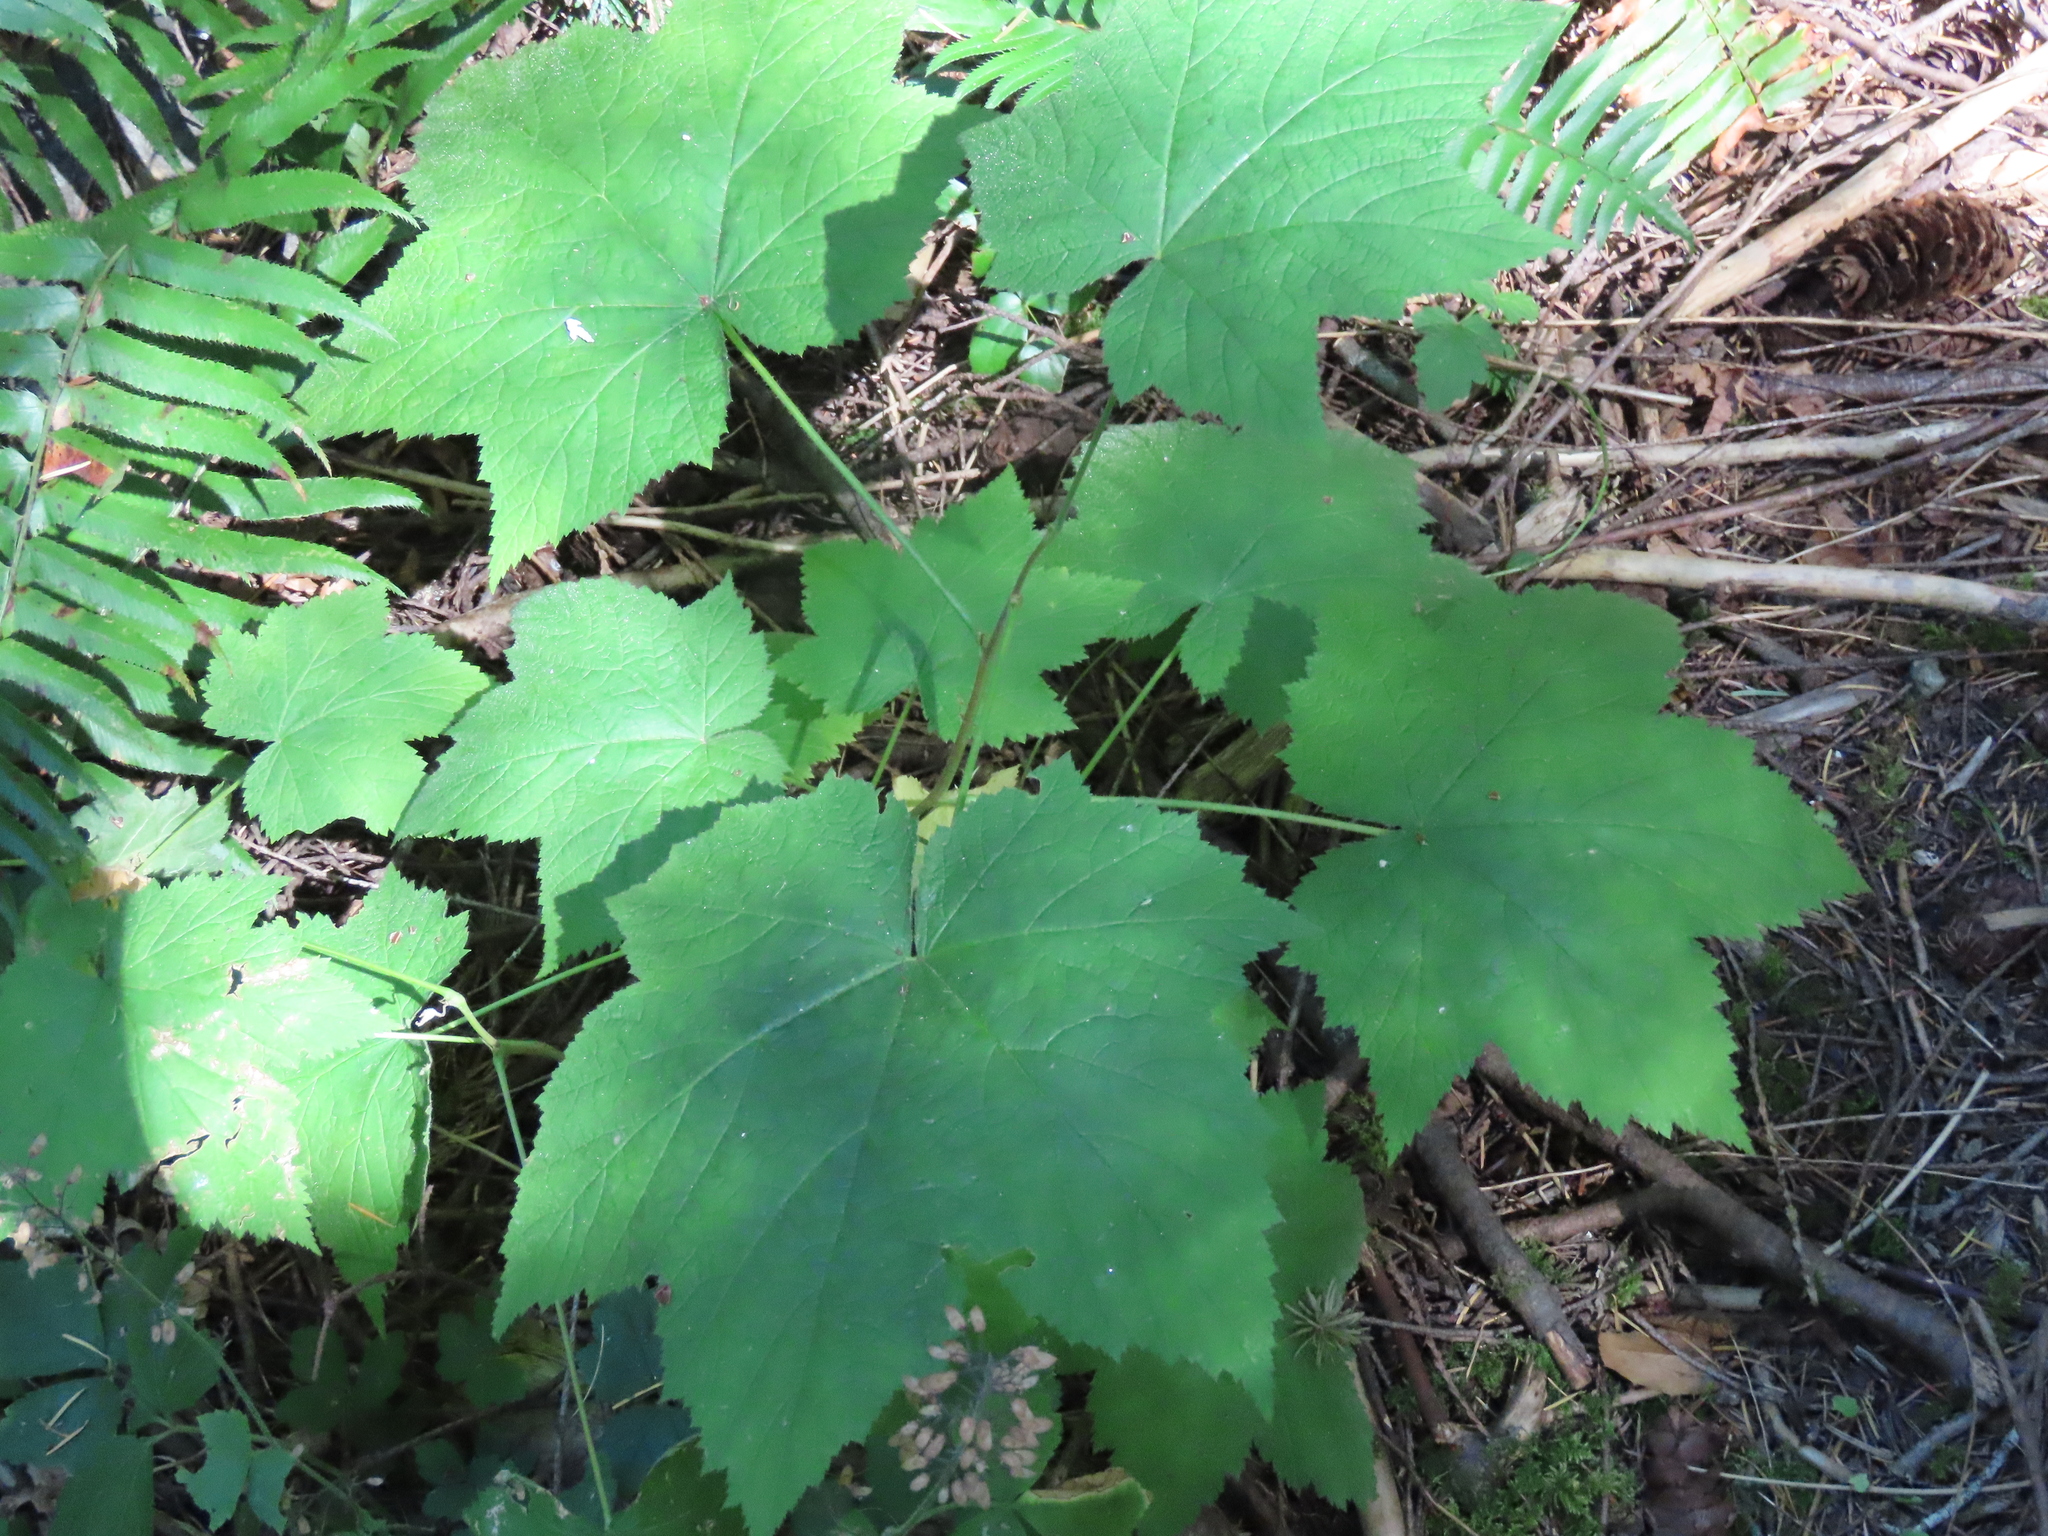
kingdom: Plantae
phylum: Tracheophyta
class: Magnoliopsida
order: Rosales
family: Rosaceae
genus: Rubus
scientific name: Rubus parviflorus
